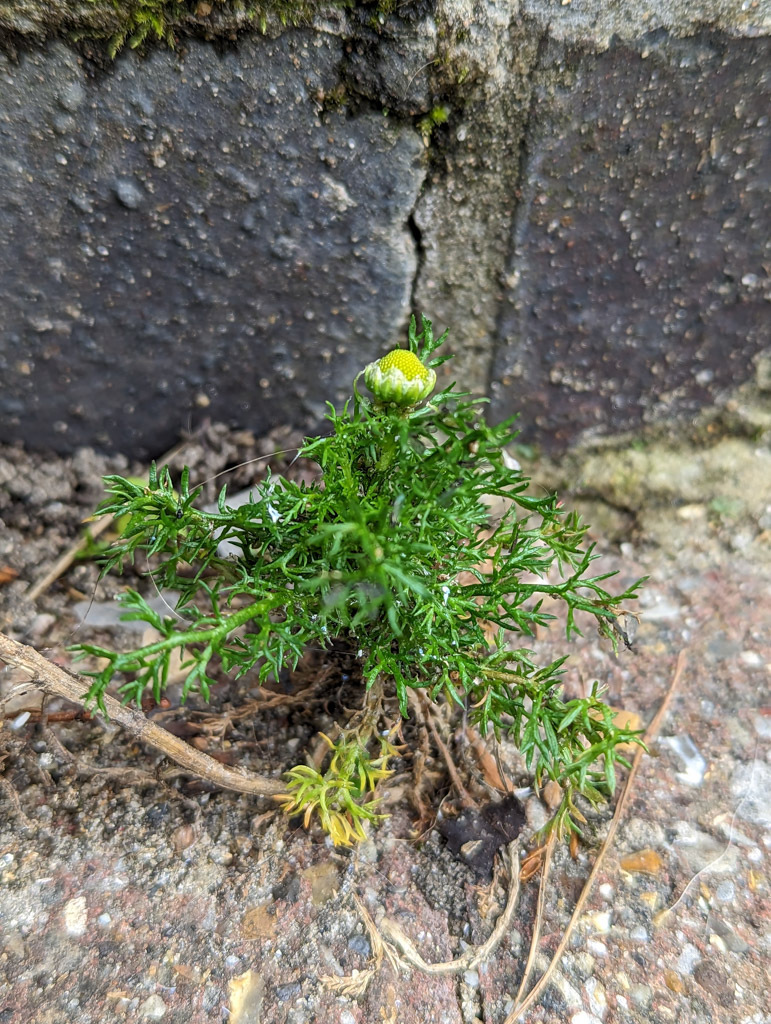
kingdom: Plantae
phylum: Tracheophyta
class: Magnoliopsida
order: Asterales
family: Asteraceae
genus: Matricaria
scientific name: Matricaria discoidea
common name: Disc mayweed
